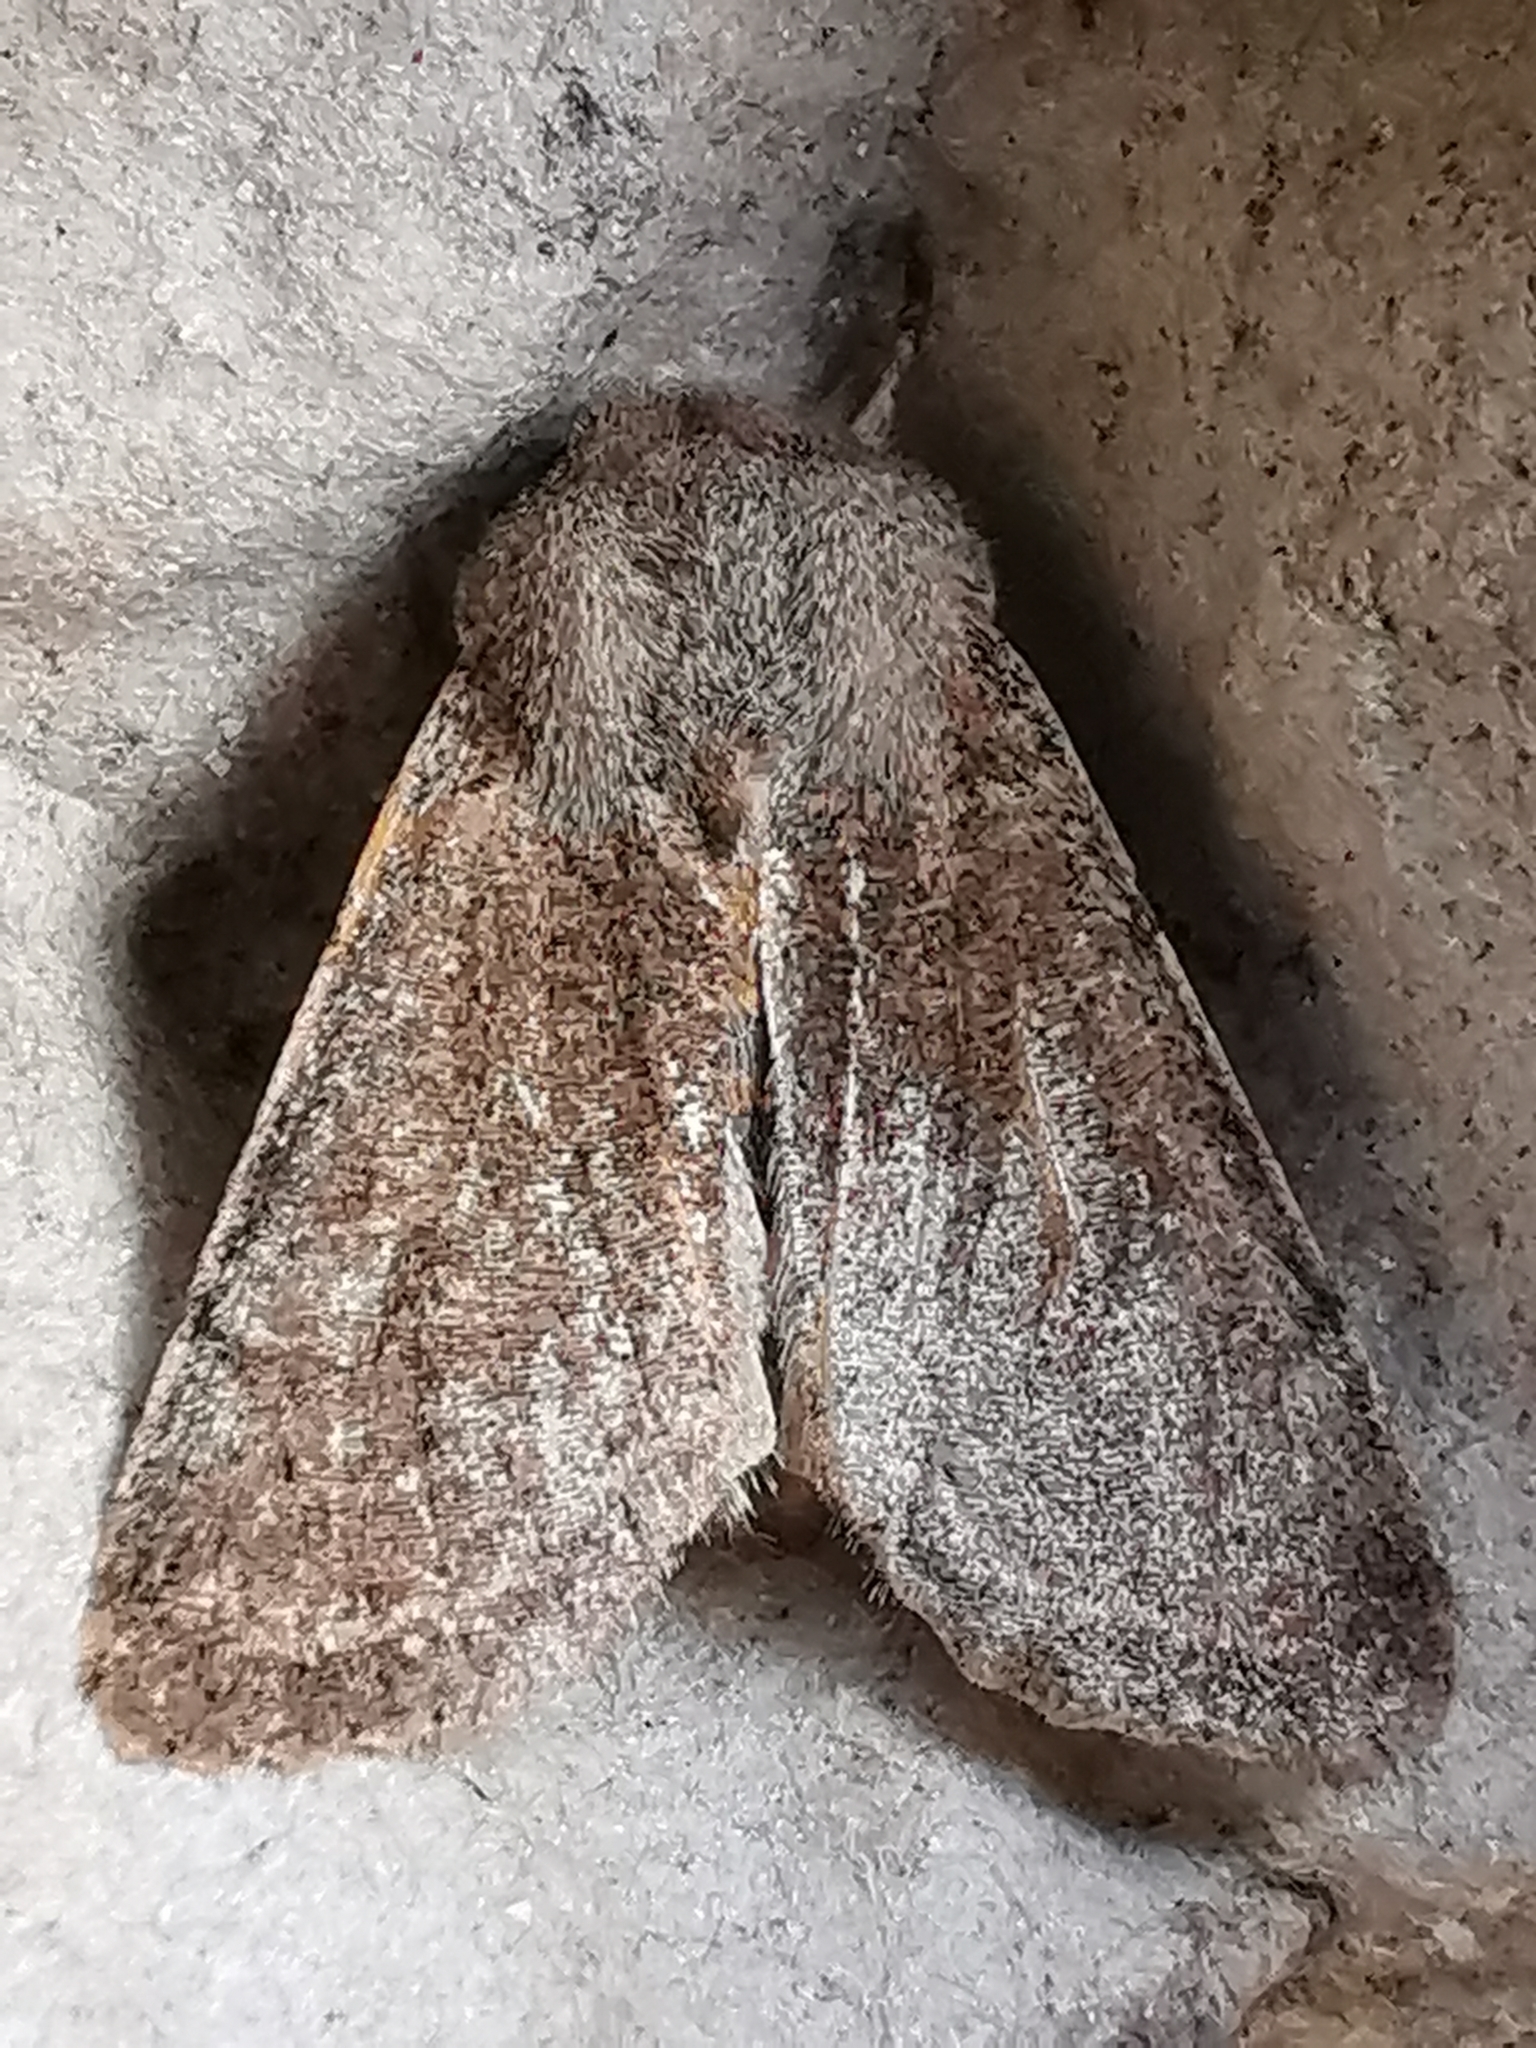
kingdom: Animalia
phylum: Arthropoda
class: Insecta
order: Lepidoptera
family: Noctuidae
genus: Orthosia
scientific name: Orthosia incerta
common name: Clouded drab
